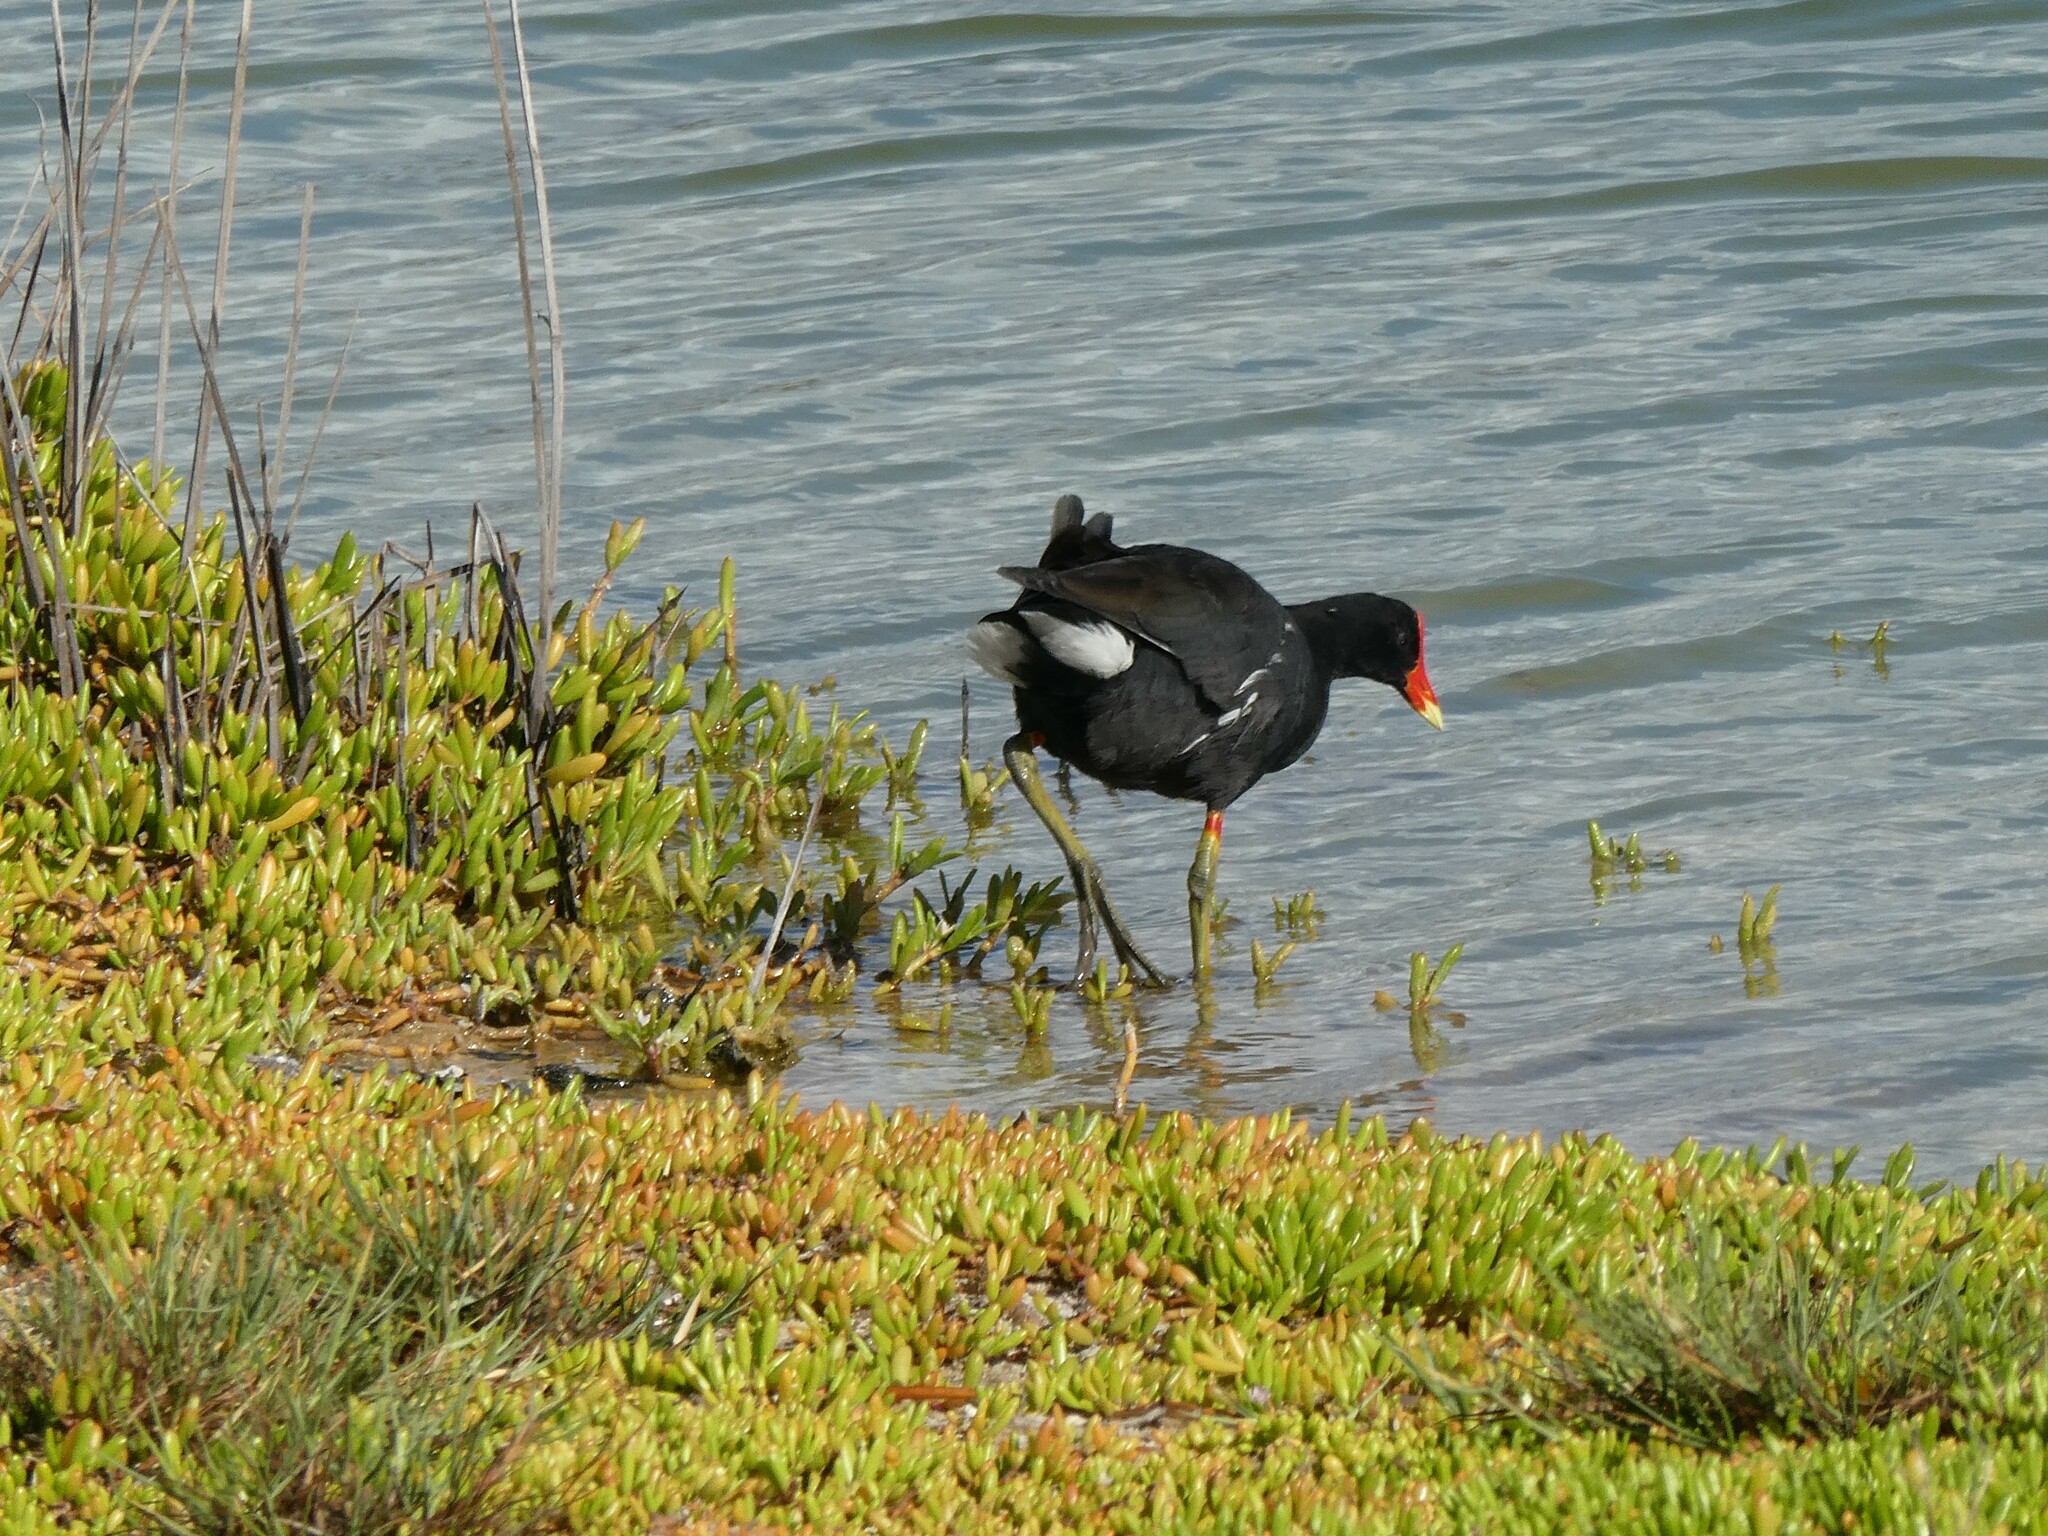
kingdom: Animalia
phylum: Chordata
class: Aves
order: Gruiformes
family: Rallidae
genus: Gallinula
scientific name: Gallinula chloropus
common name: Common moorhen
